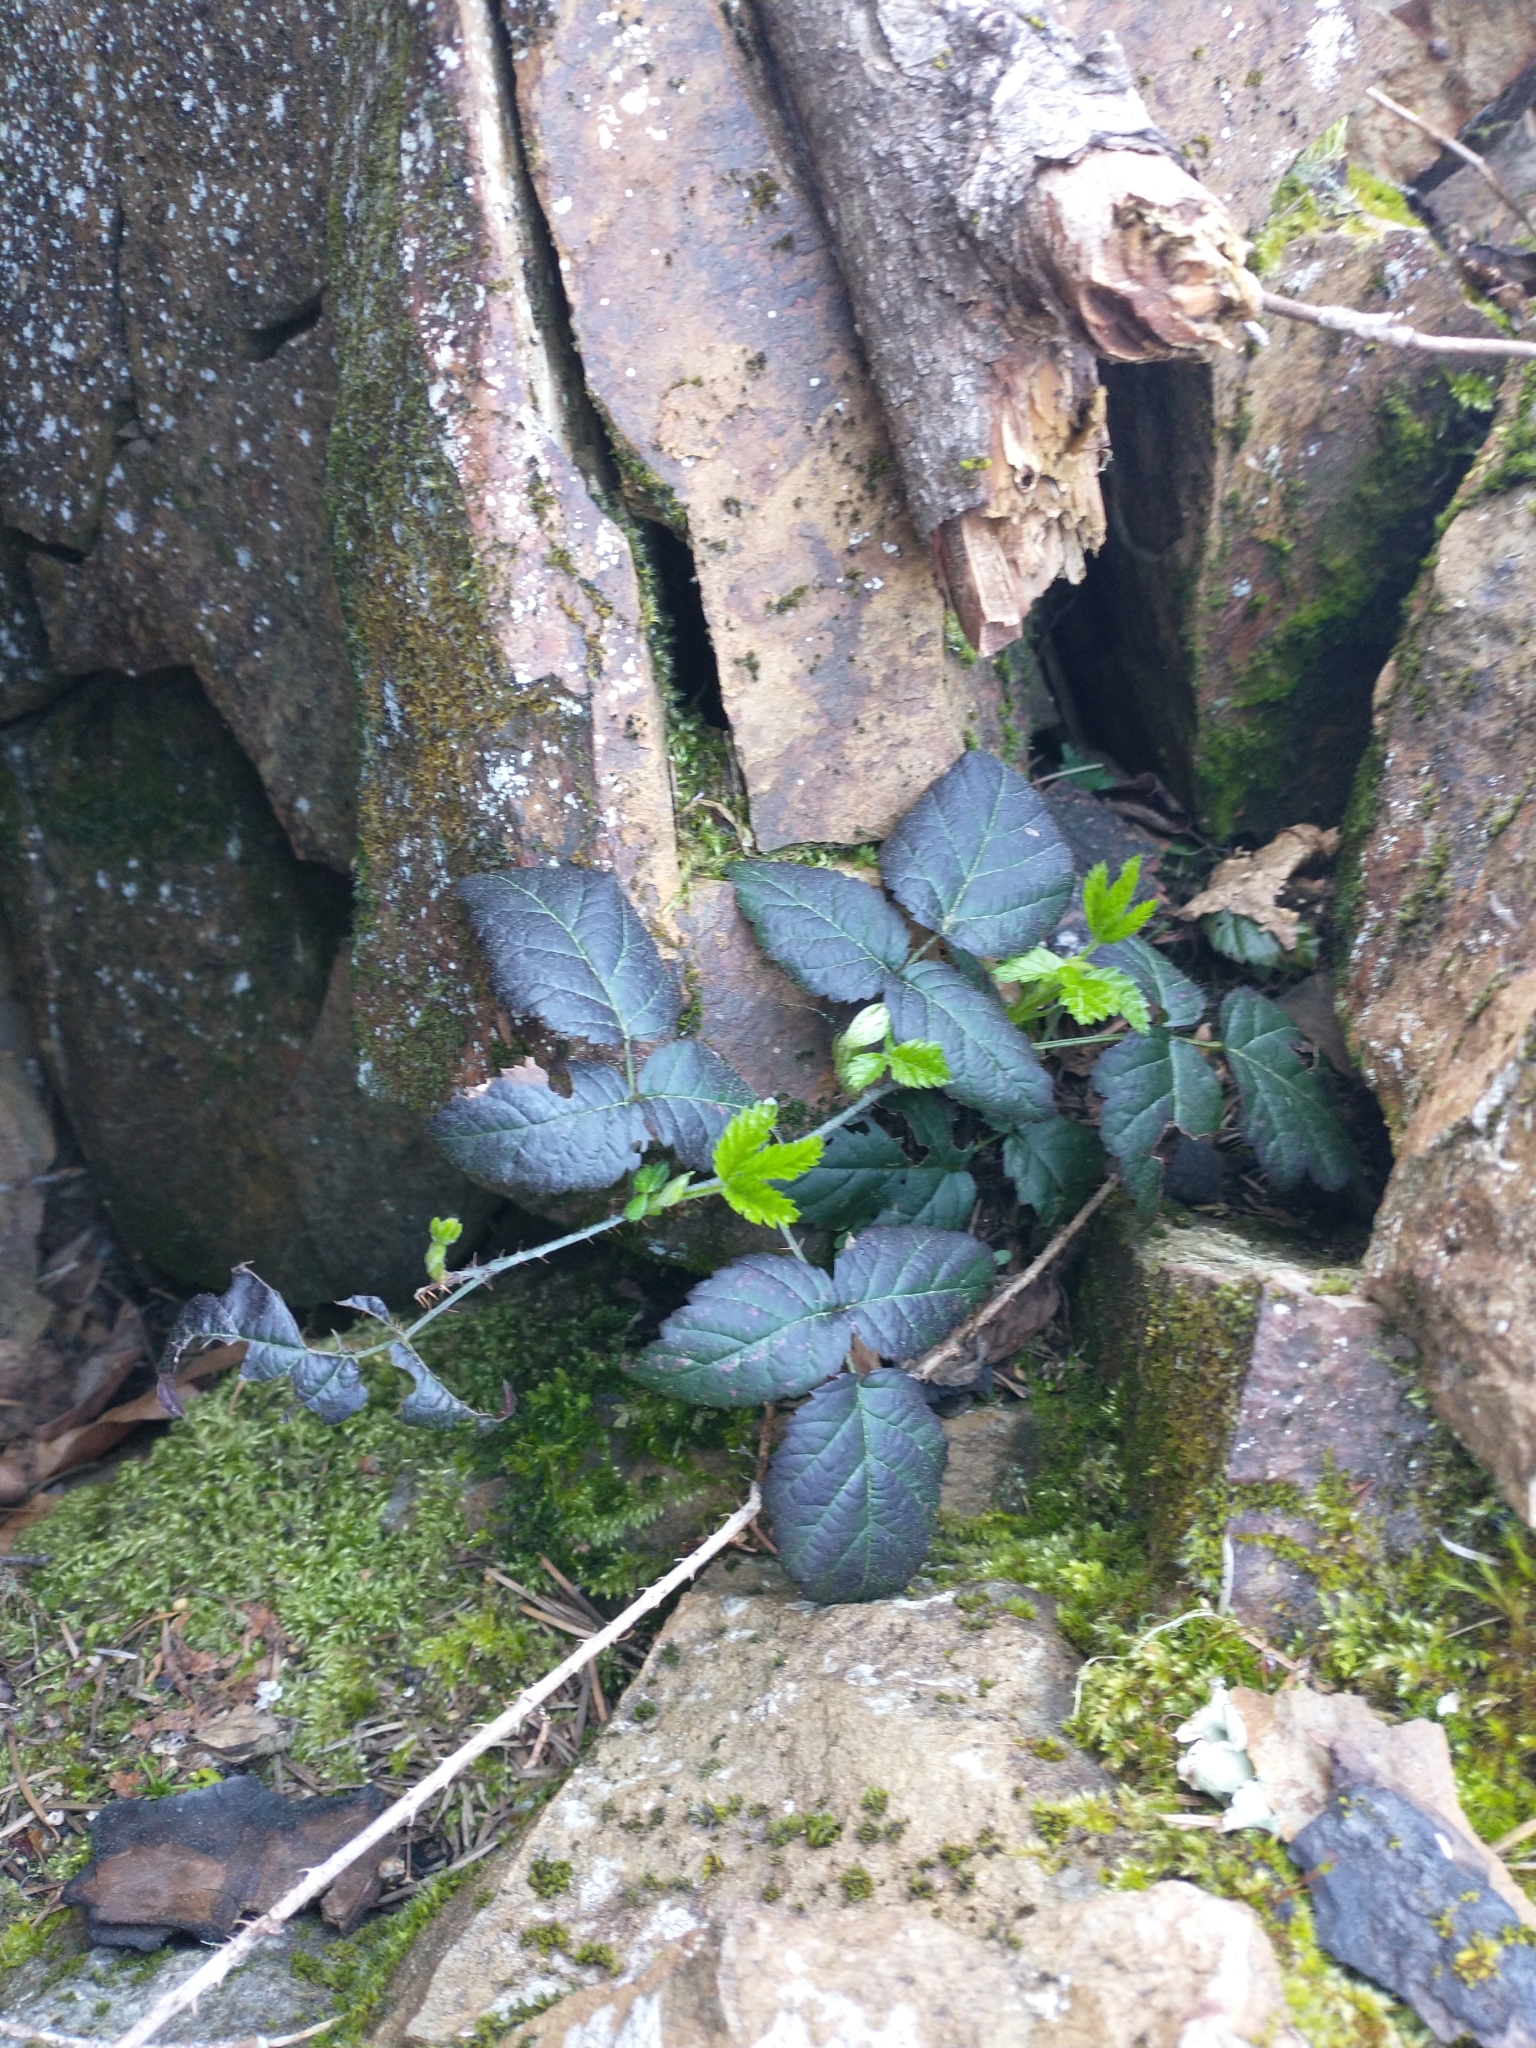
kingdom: Plantae
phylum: Tracheophyta
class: Magnoliopsida
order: Rosales
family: Rosaceae
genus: Rubus
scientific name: Rubus ursinus
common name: Pacific blackberry
